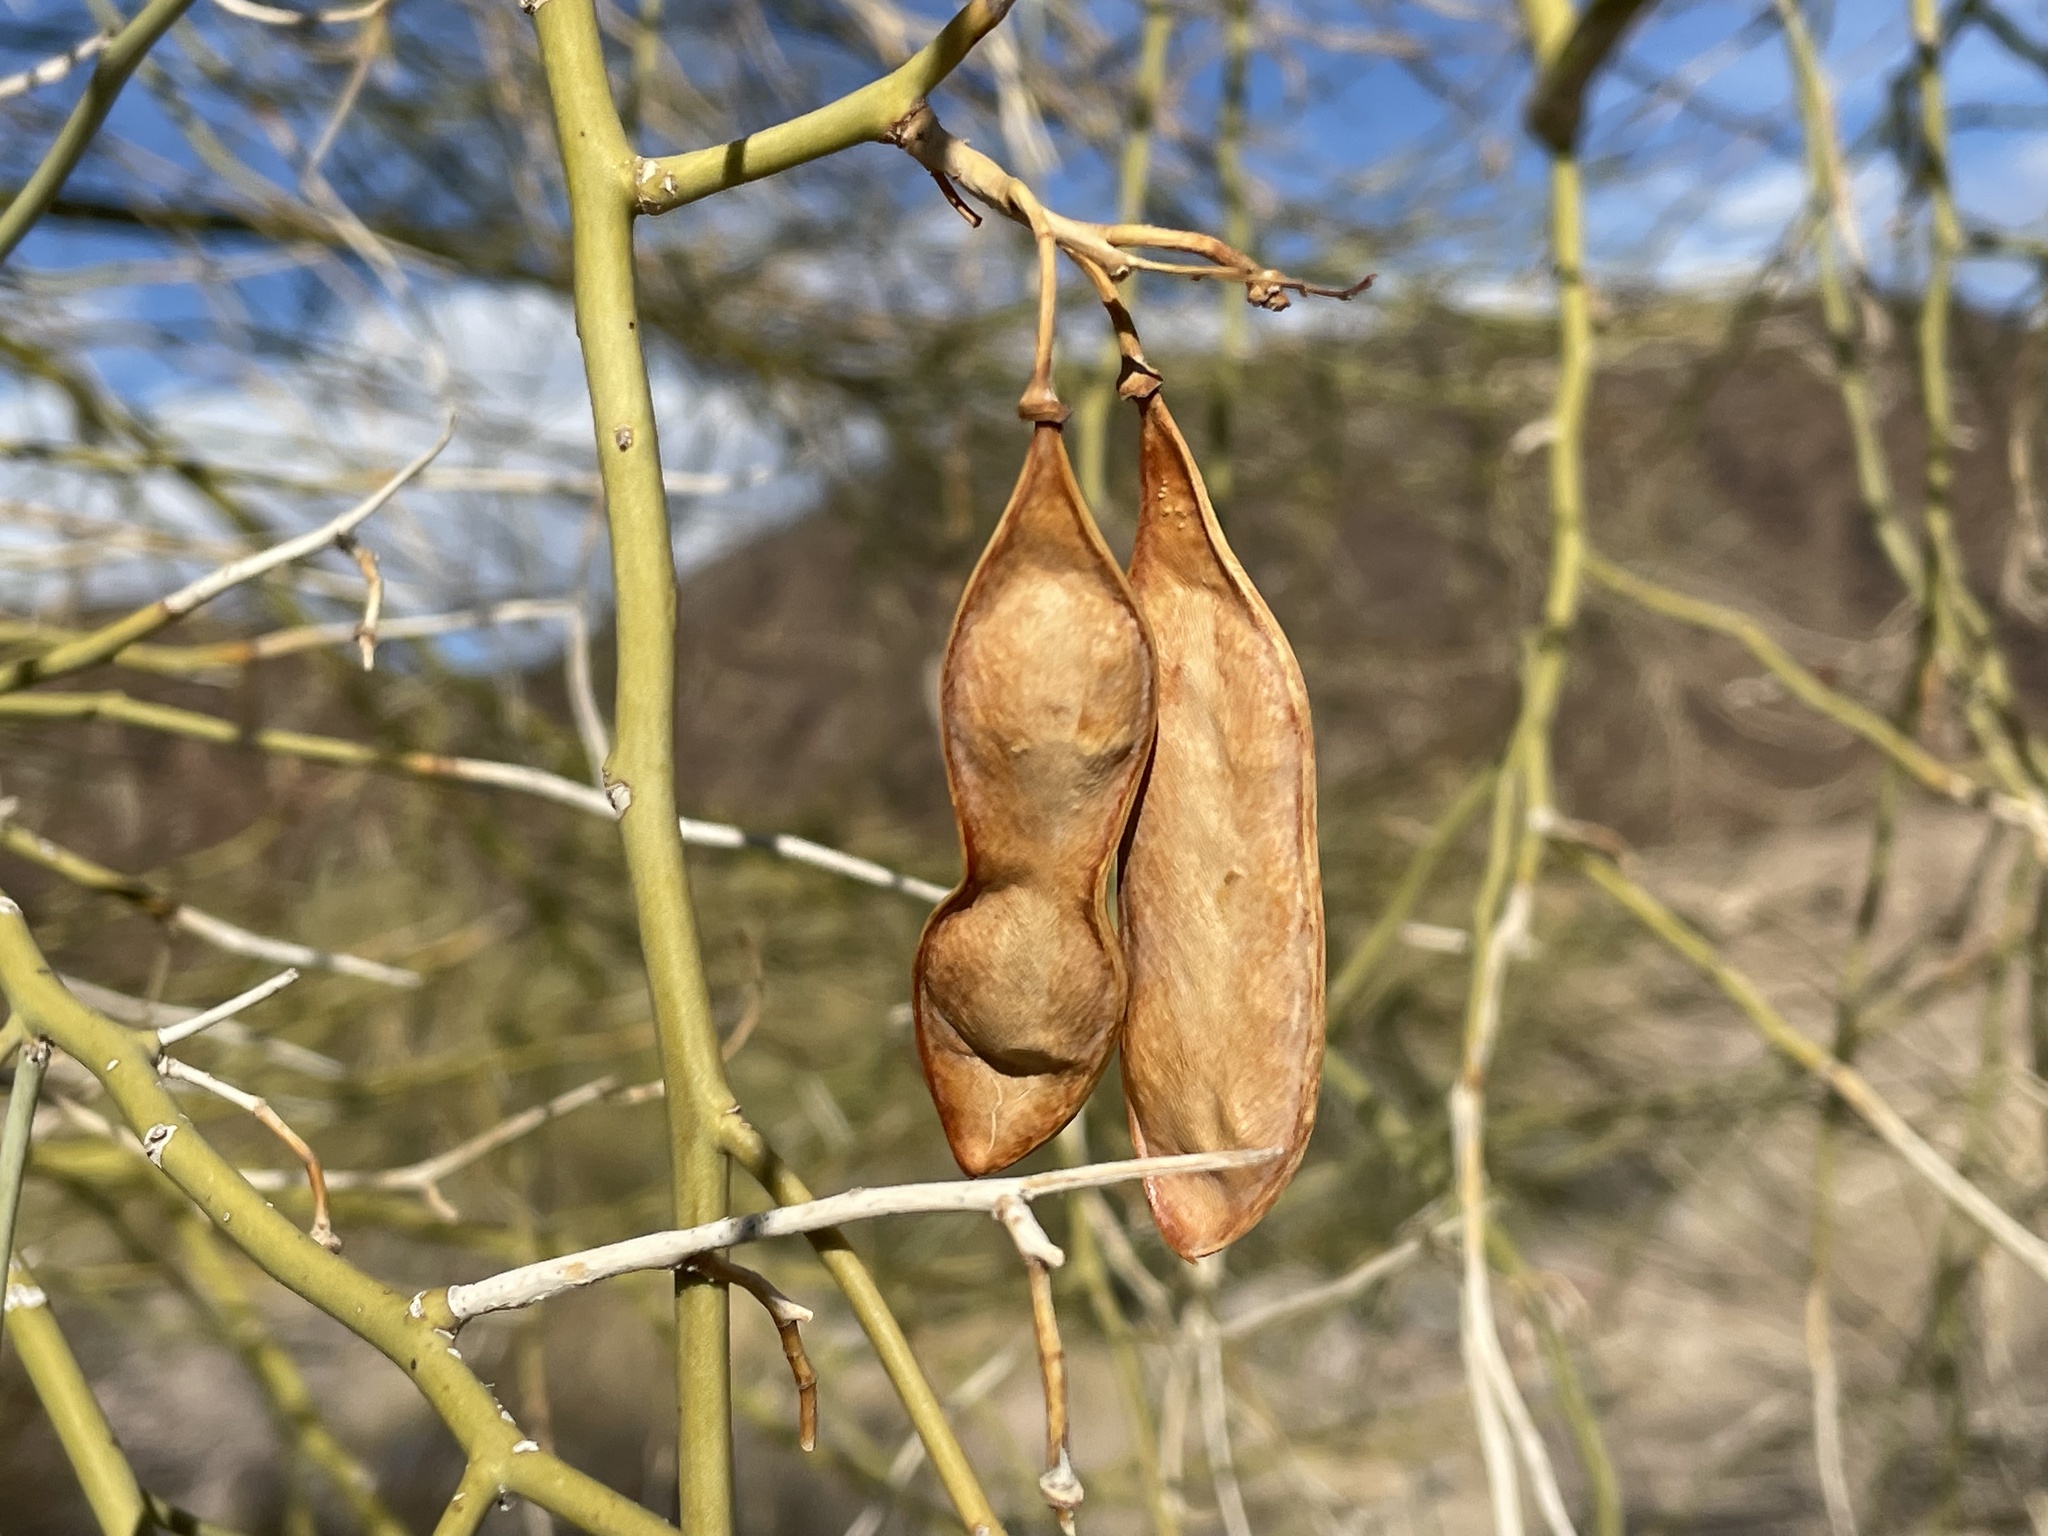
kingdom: Plantae
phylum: Tracheophyta
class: Magnoliopsida
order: Fabales
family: Fabaceae
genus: Parkinsonia
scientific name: Parkinsonia florida
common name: Blue paloverde
